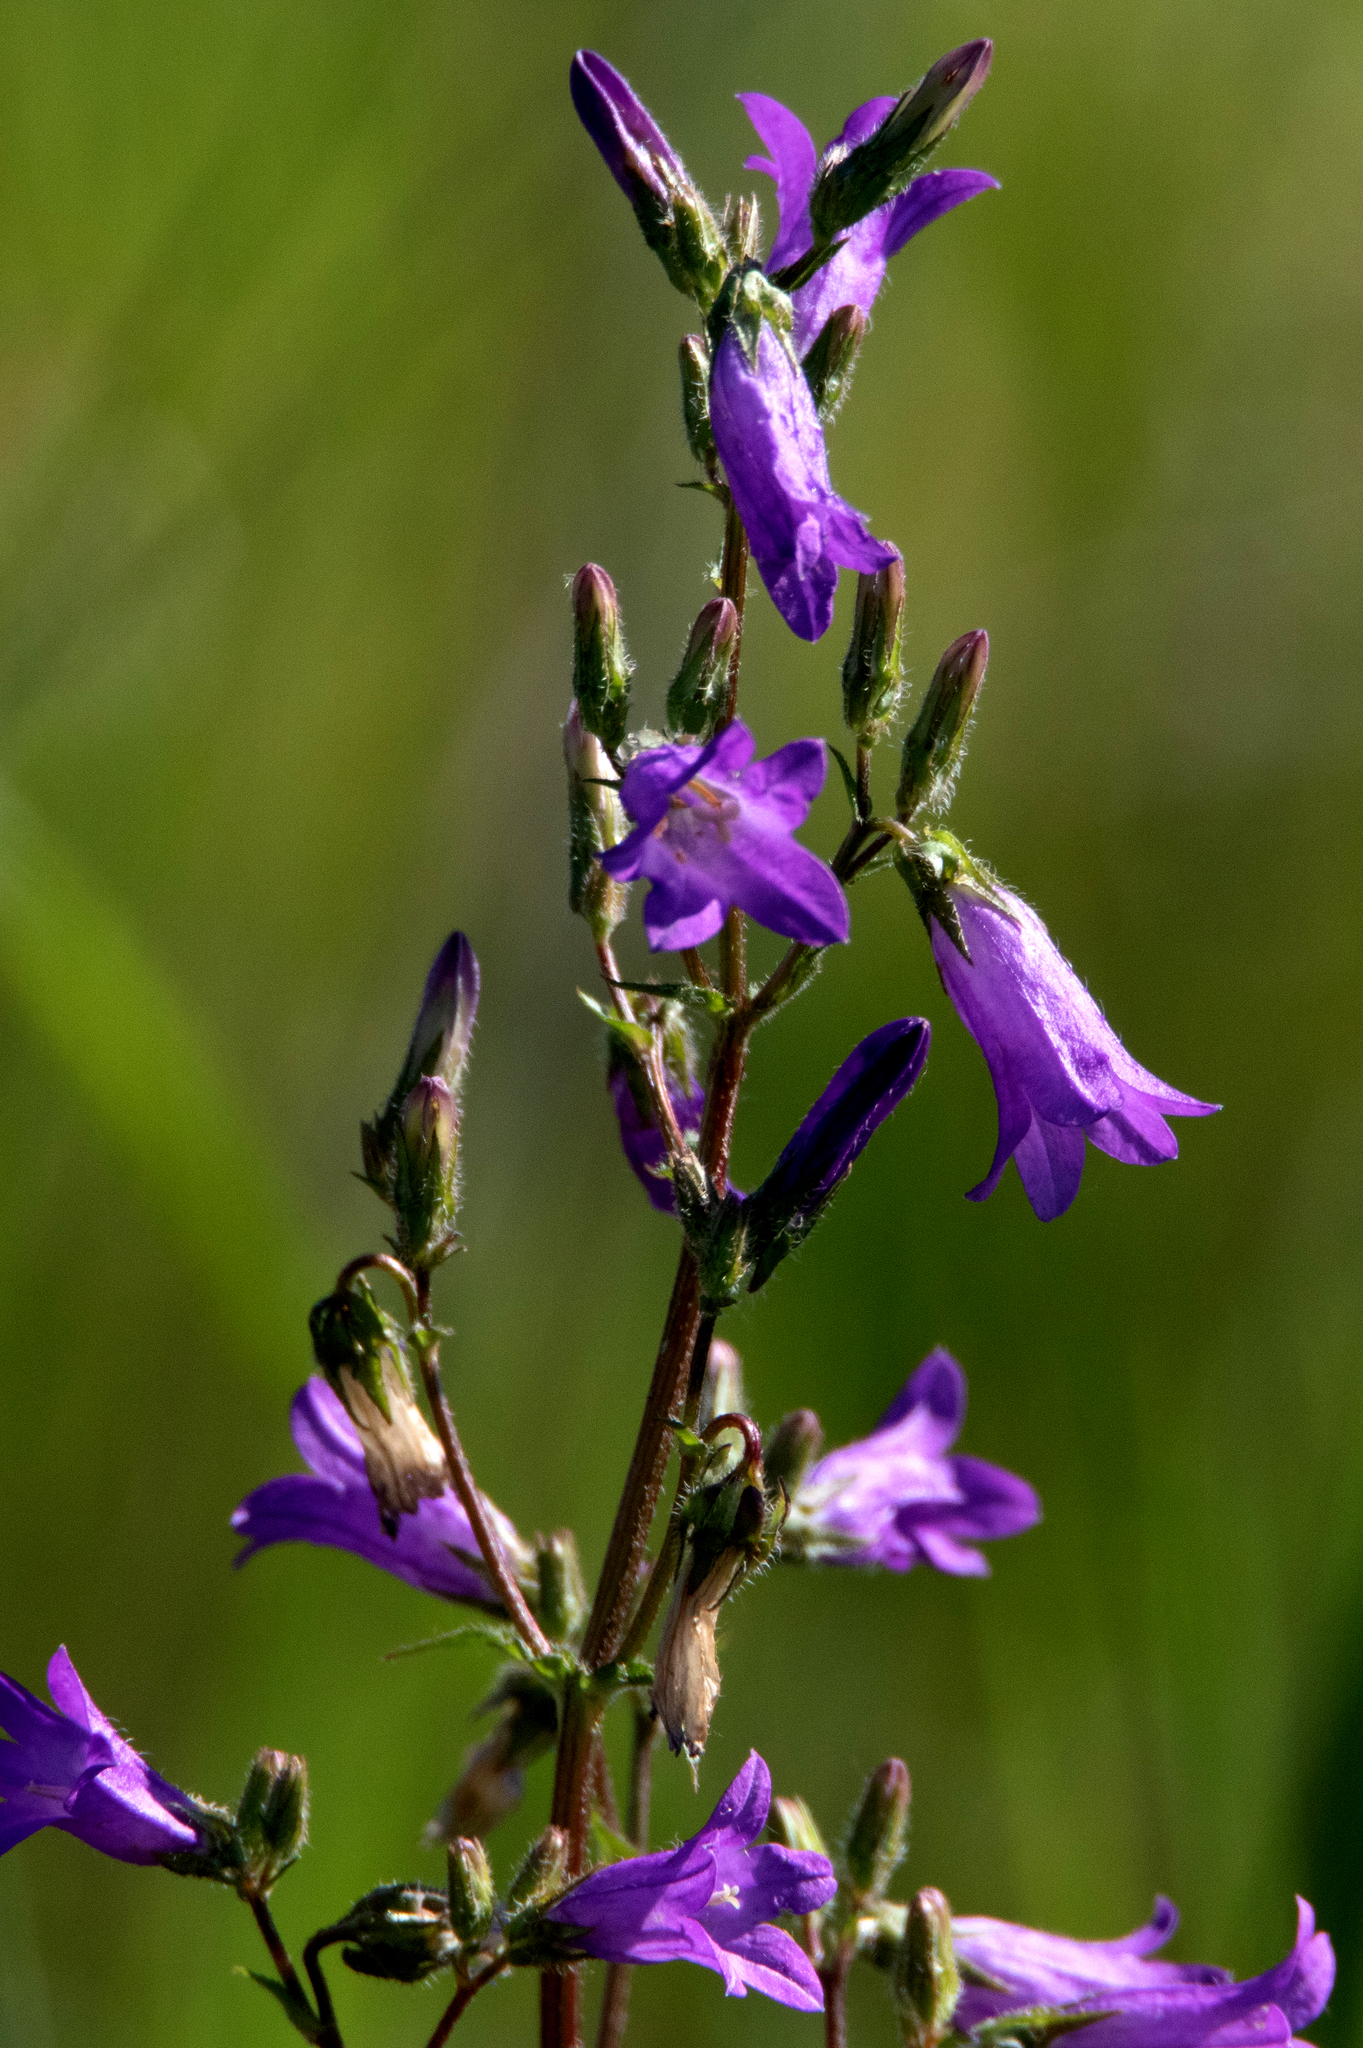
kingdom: Plantae
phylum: Tracheophyta
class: Magnoliopsida
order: Asterales
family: Campanulaceae
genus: Campanula
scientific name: Campanula sibirica
